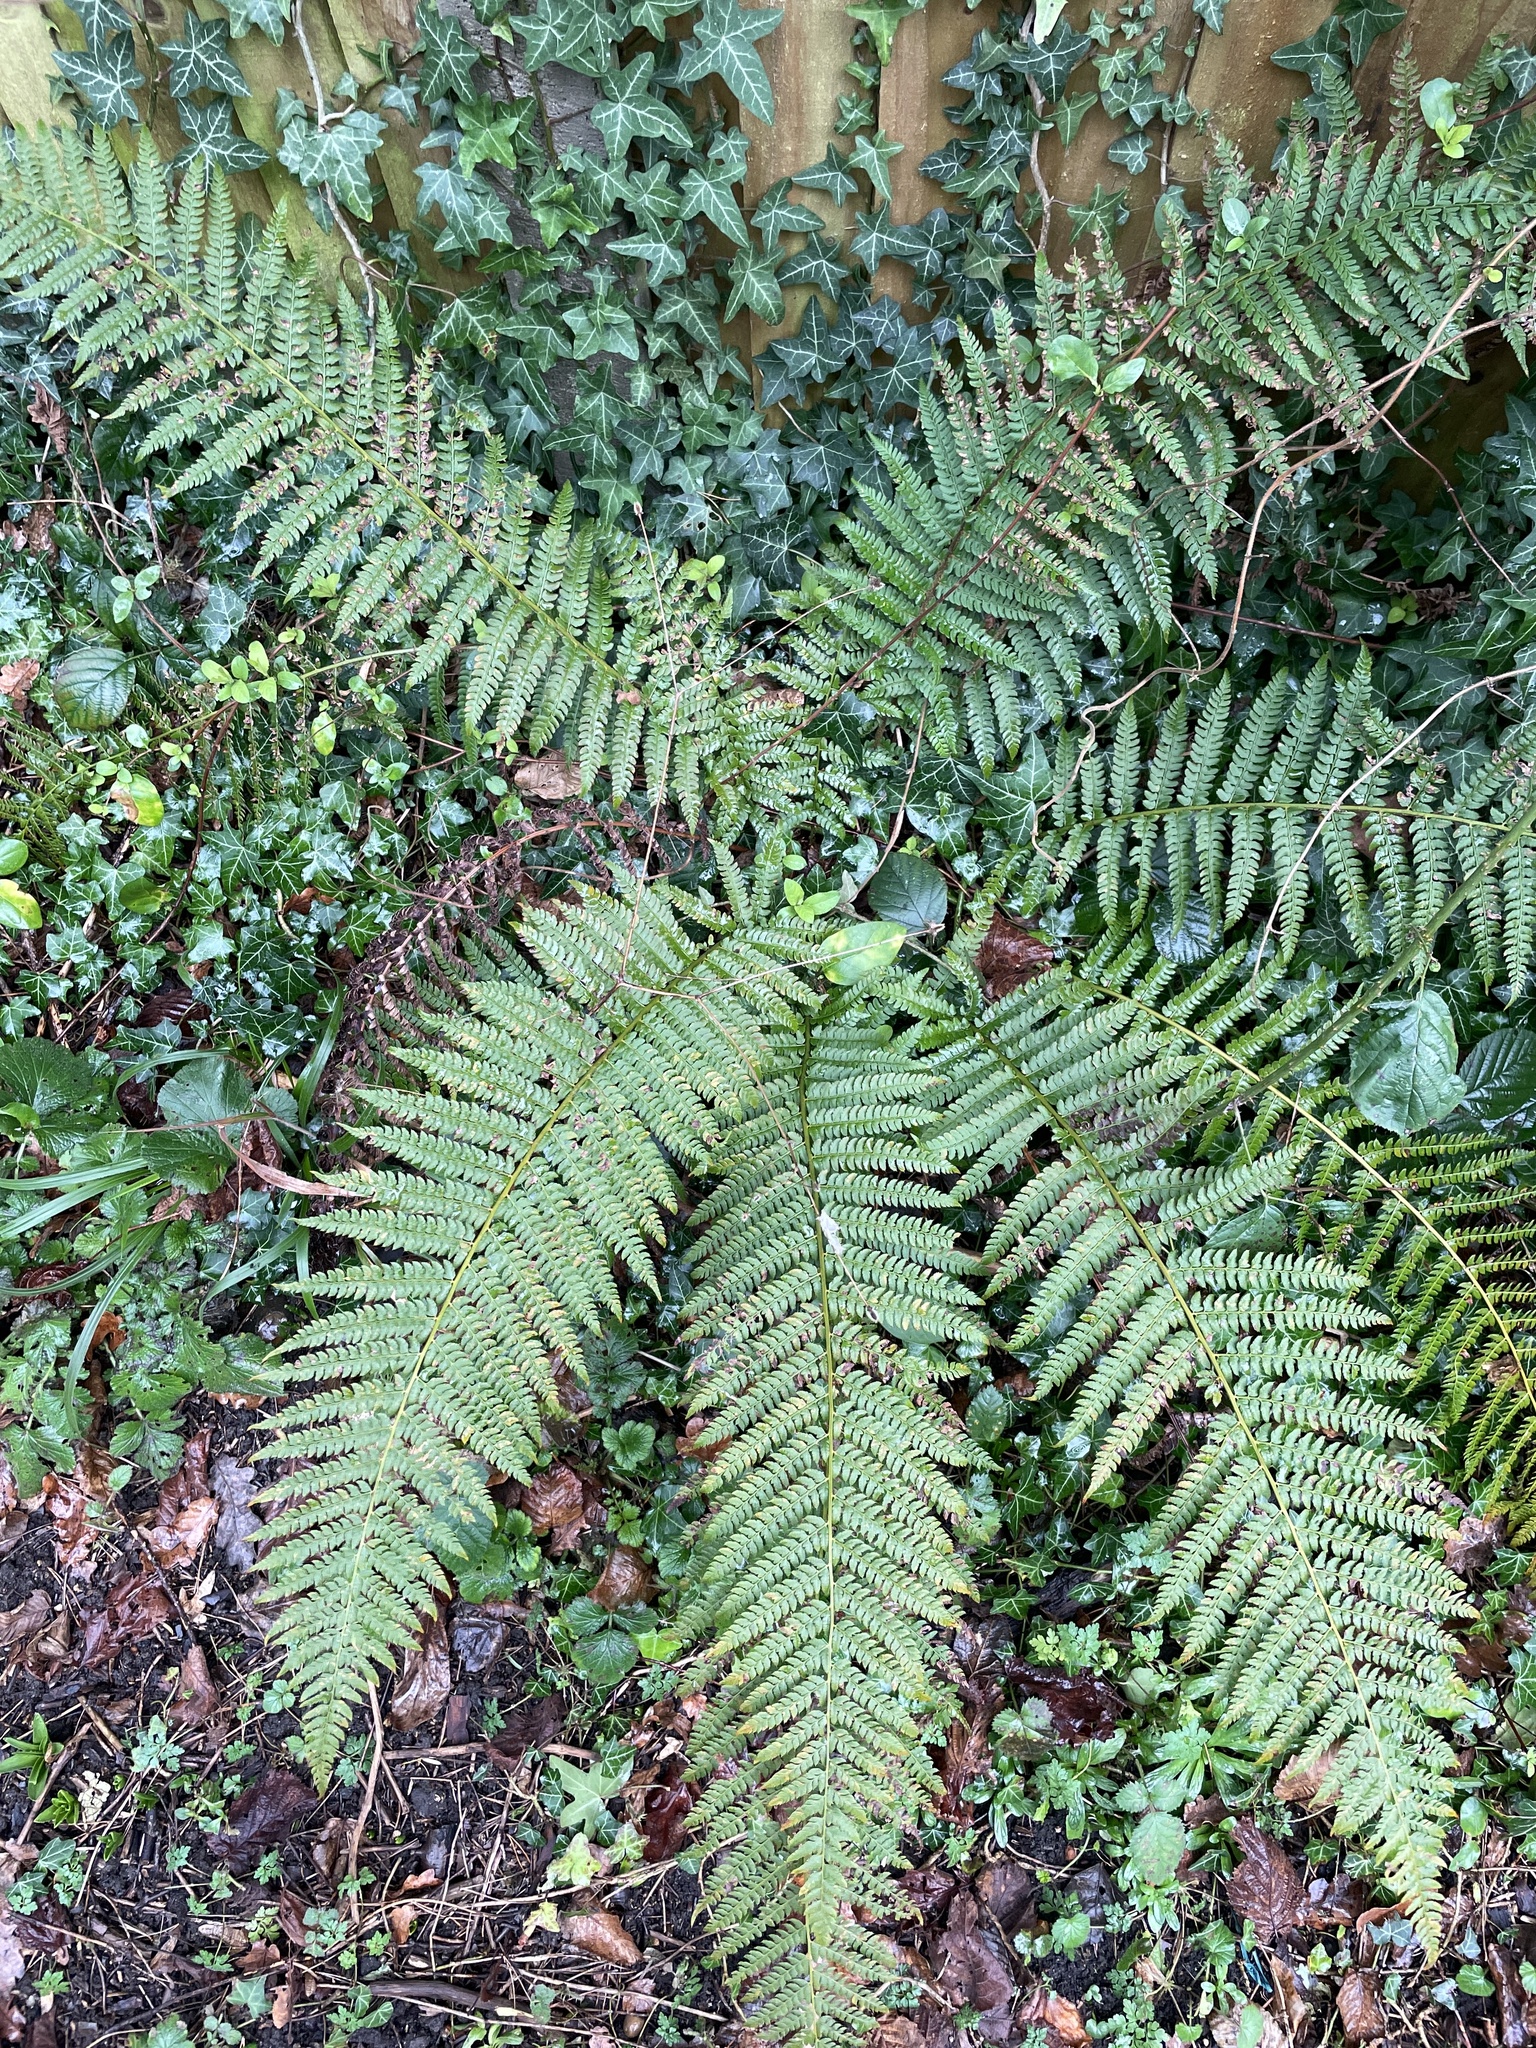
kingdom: Plantae
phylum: Tracheophyta
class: Polypodiopsida
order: Polypodiales
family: Dryopteridaceae
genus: Polystichum
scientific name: Polystichum setiferum
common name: Soft shield-fern
